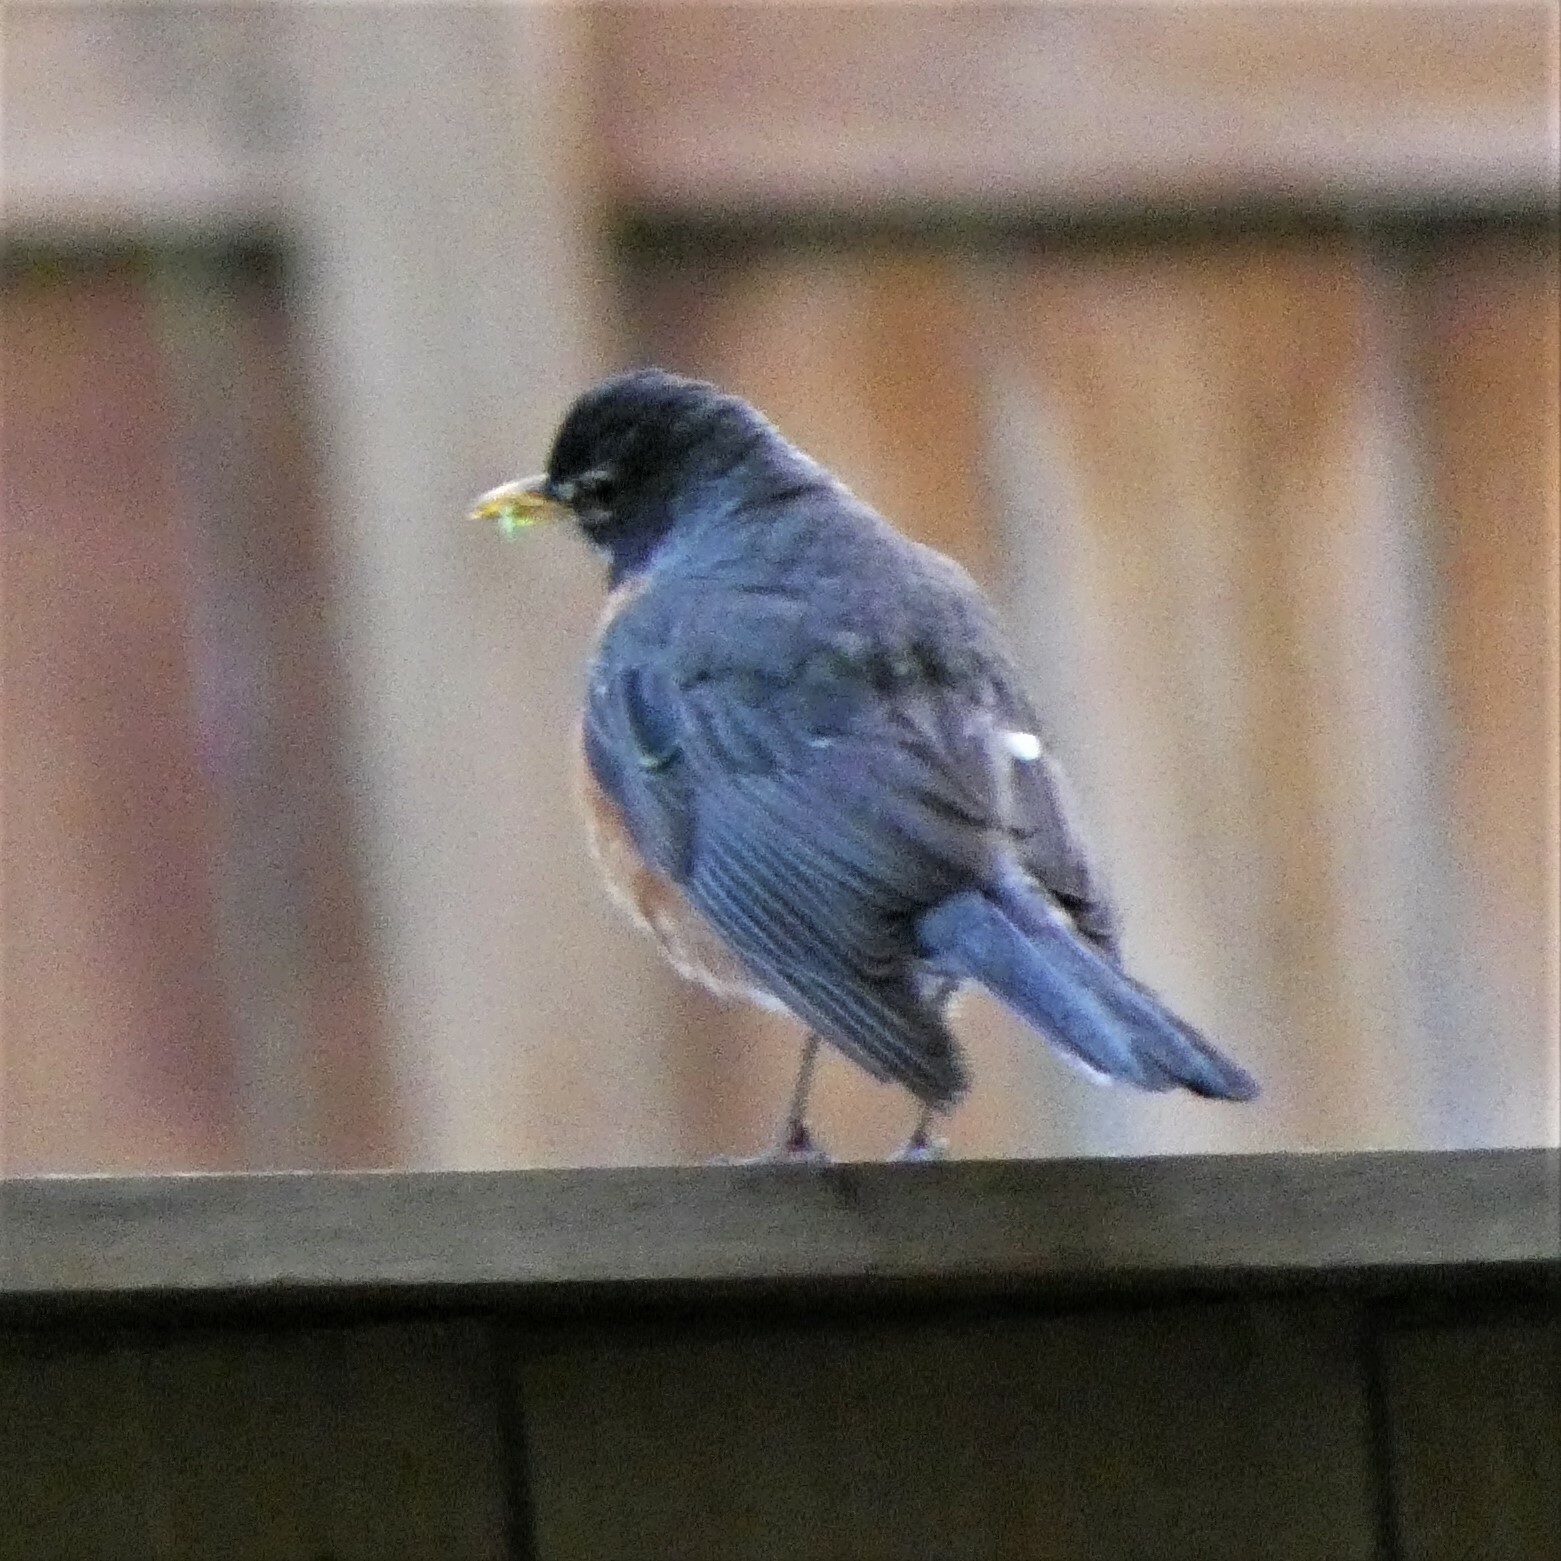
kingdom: Animalia
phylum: Chordata
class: Aves
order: Passeriformes
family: Turdidae
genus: Turdus
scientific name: Turdus migratorius
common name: American robin
